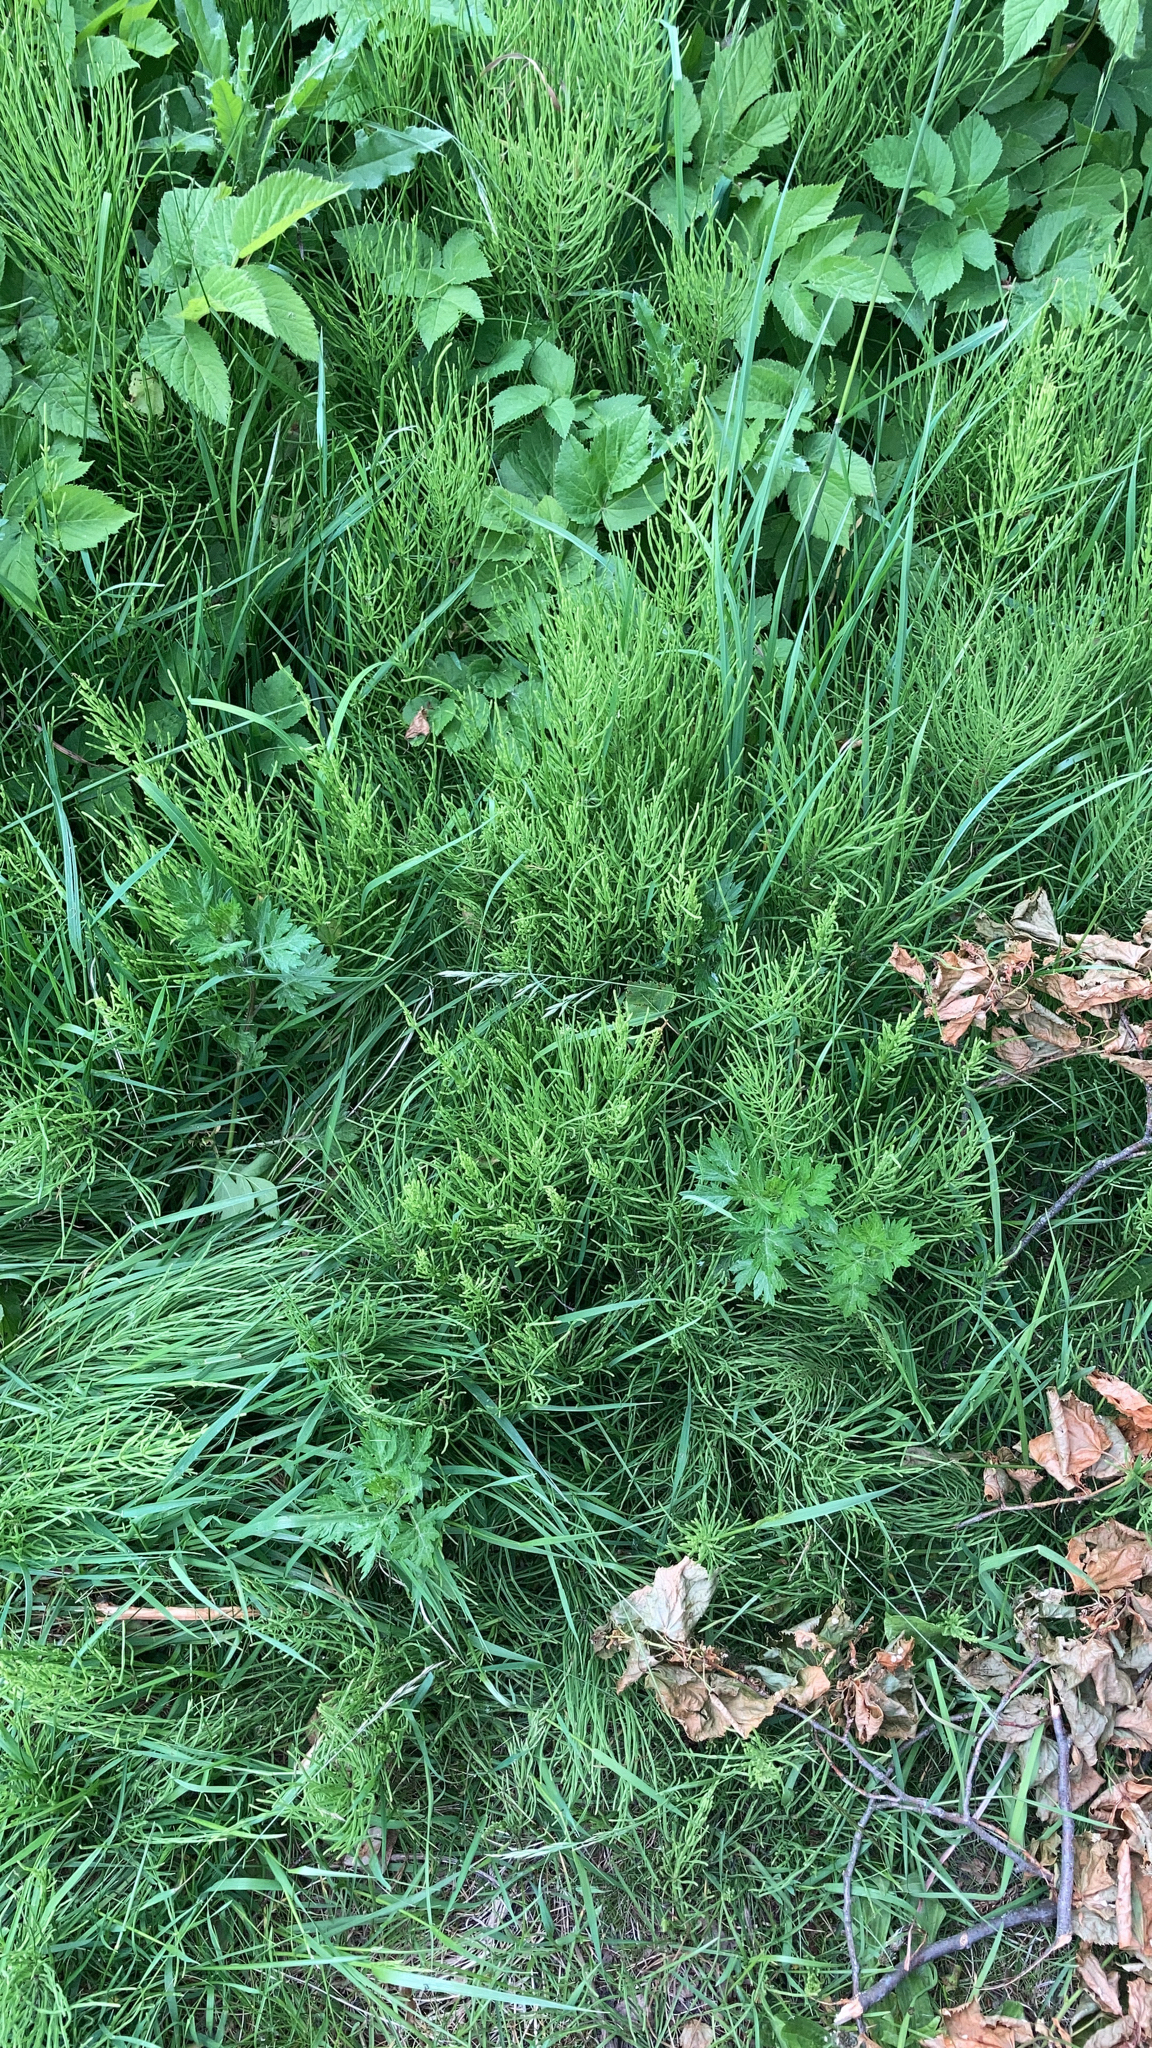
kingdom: Plantae
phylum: Tracheophyta
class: Polypodiopsida
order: Equisetales
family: Equisetaceae
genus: Equisetum
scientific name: Equisetum arvense
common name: Field horsetail
